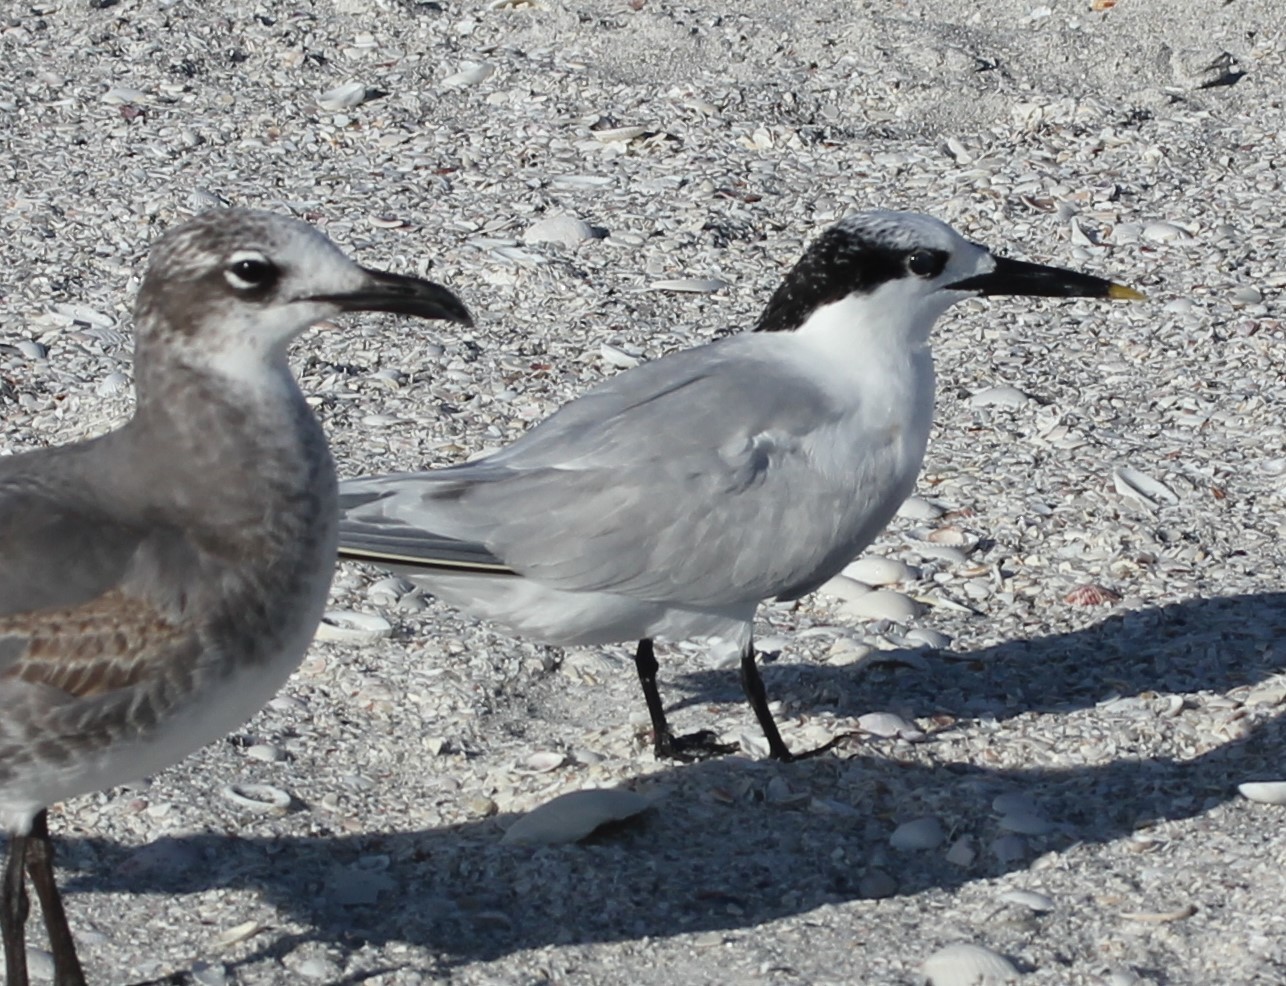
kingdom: Animalia
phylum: Chordata
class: Aves
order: Charadriiformes
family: Laridae
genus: Thalasseus
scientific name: Thalasseus sandvicensis
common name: Sandwich tern
